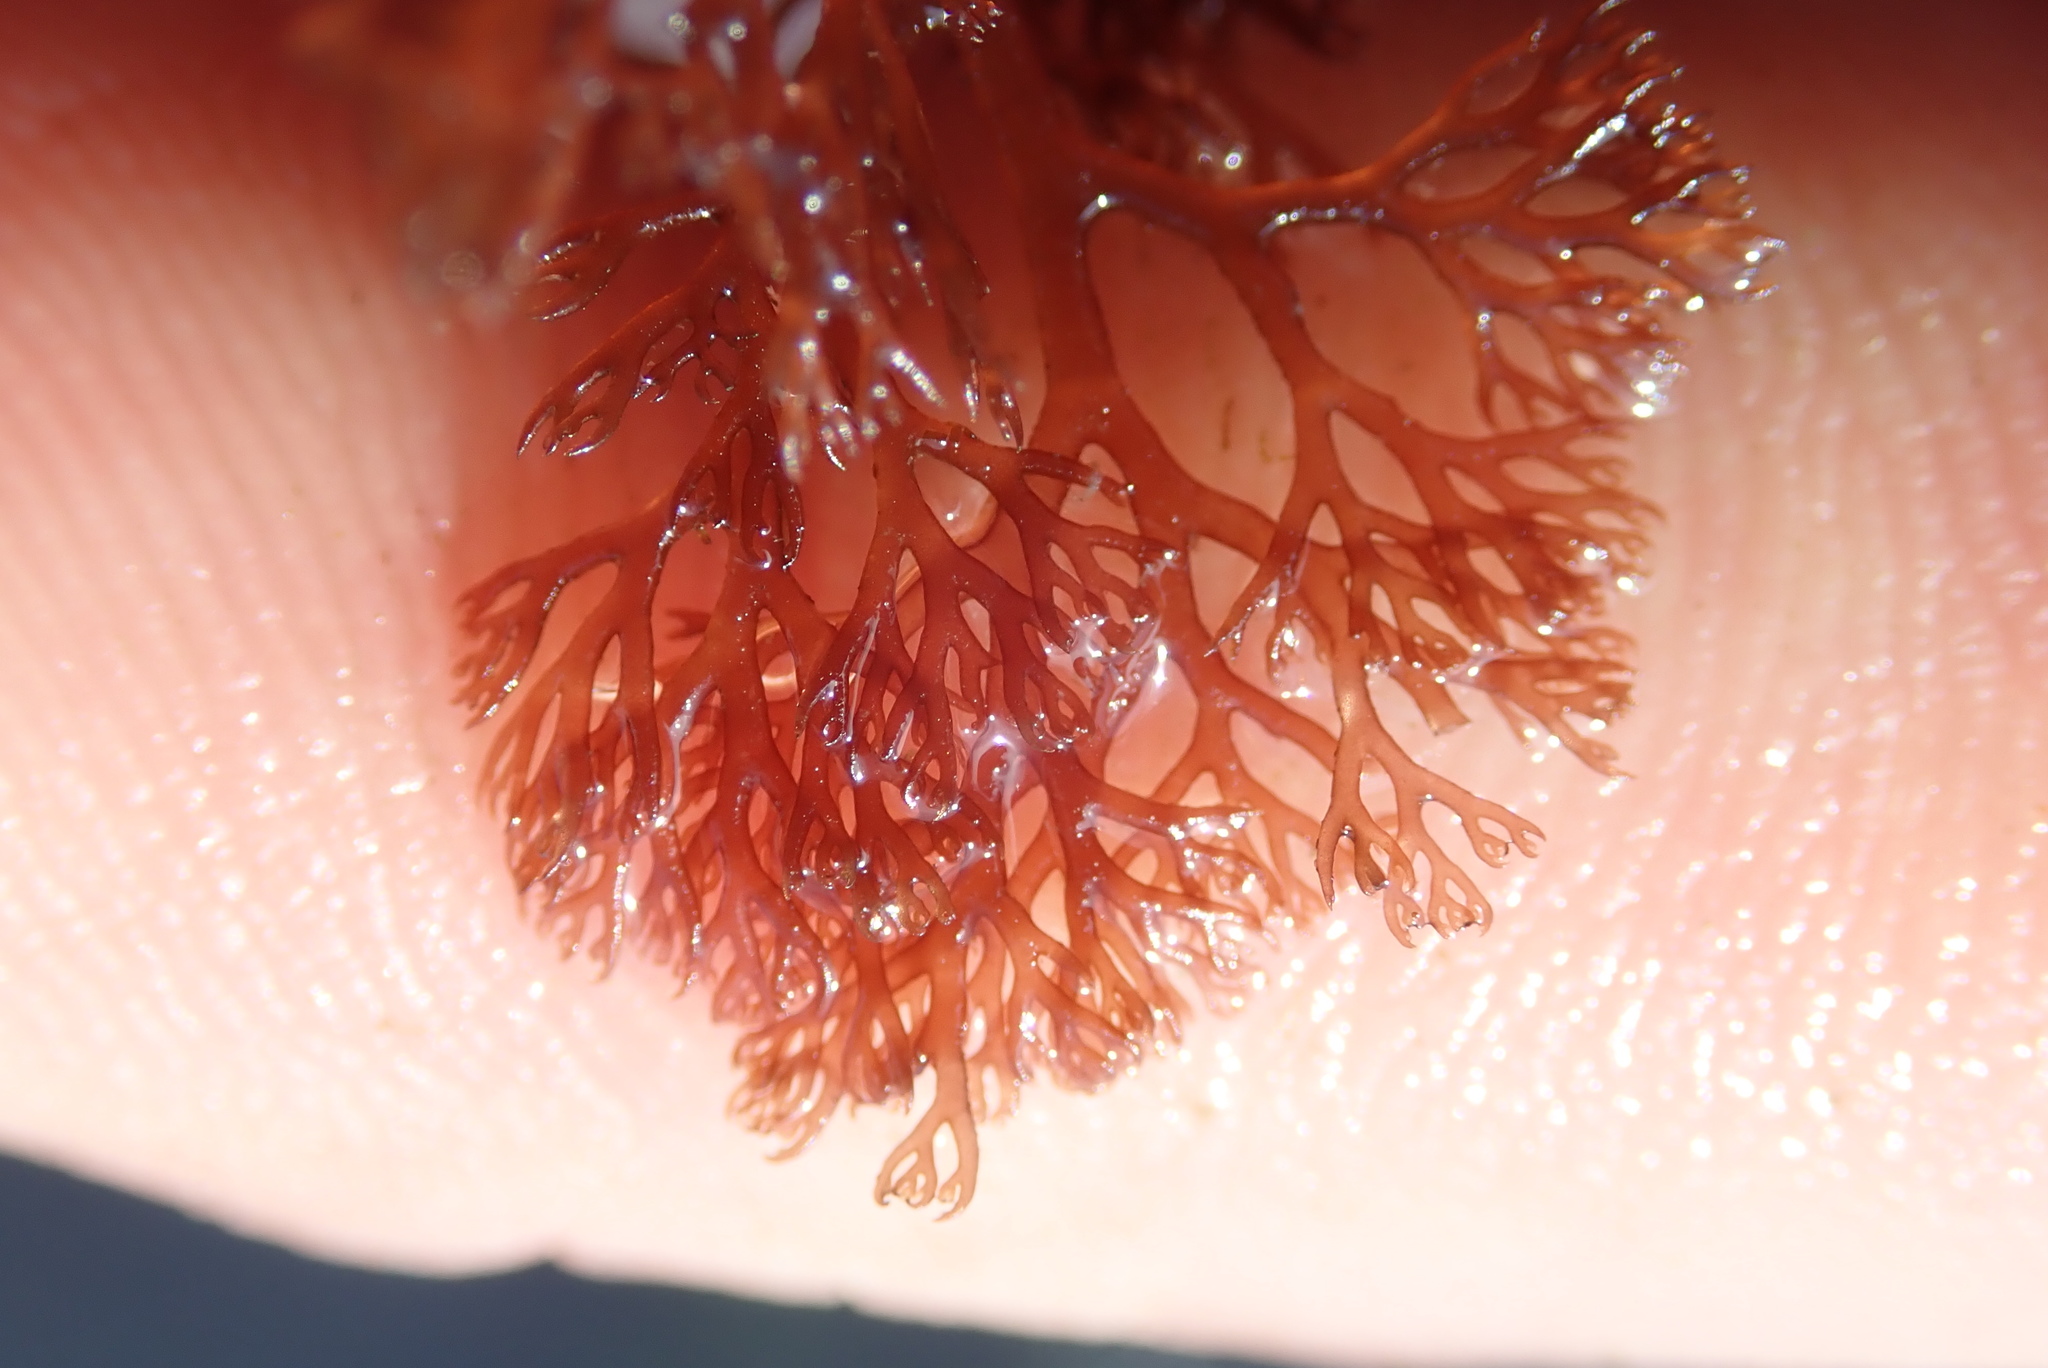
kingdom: Plantae
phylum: Rhodophyta
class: Florideophyceae
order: Ceramiales
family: Ceramiaceae
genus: Microcladia
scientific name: Microcladia coulteri
